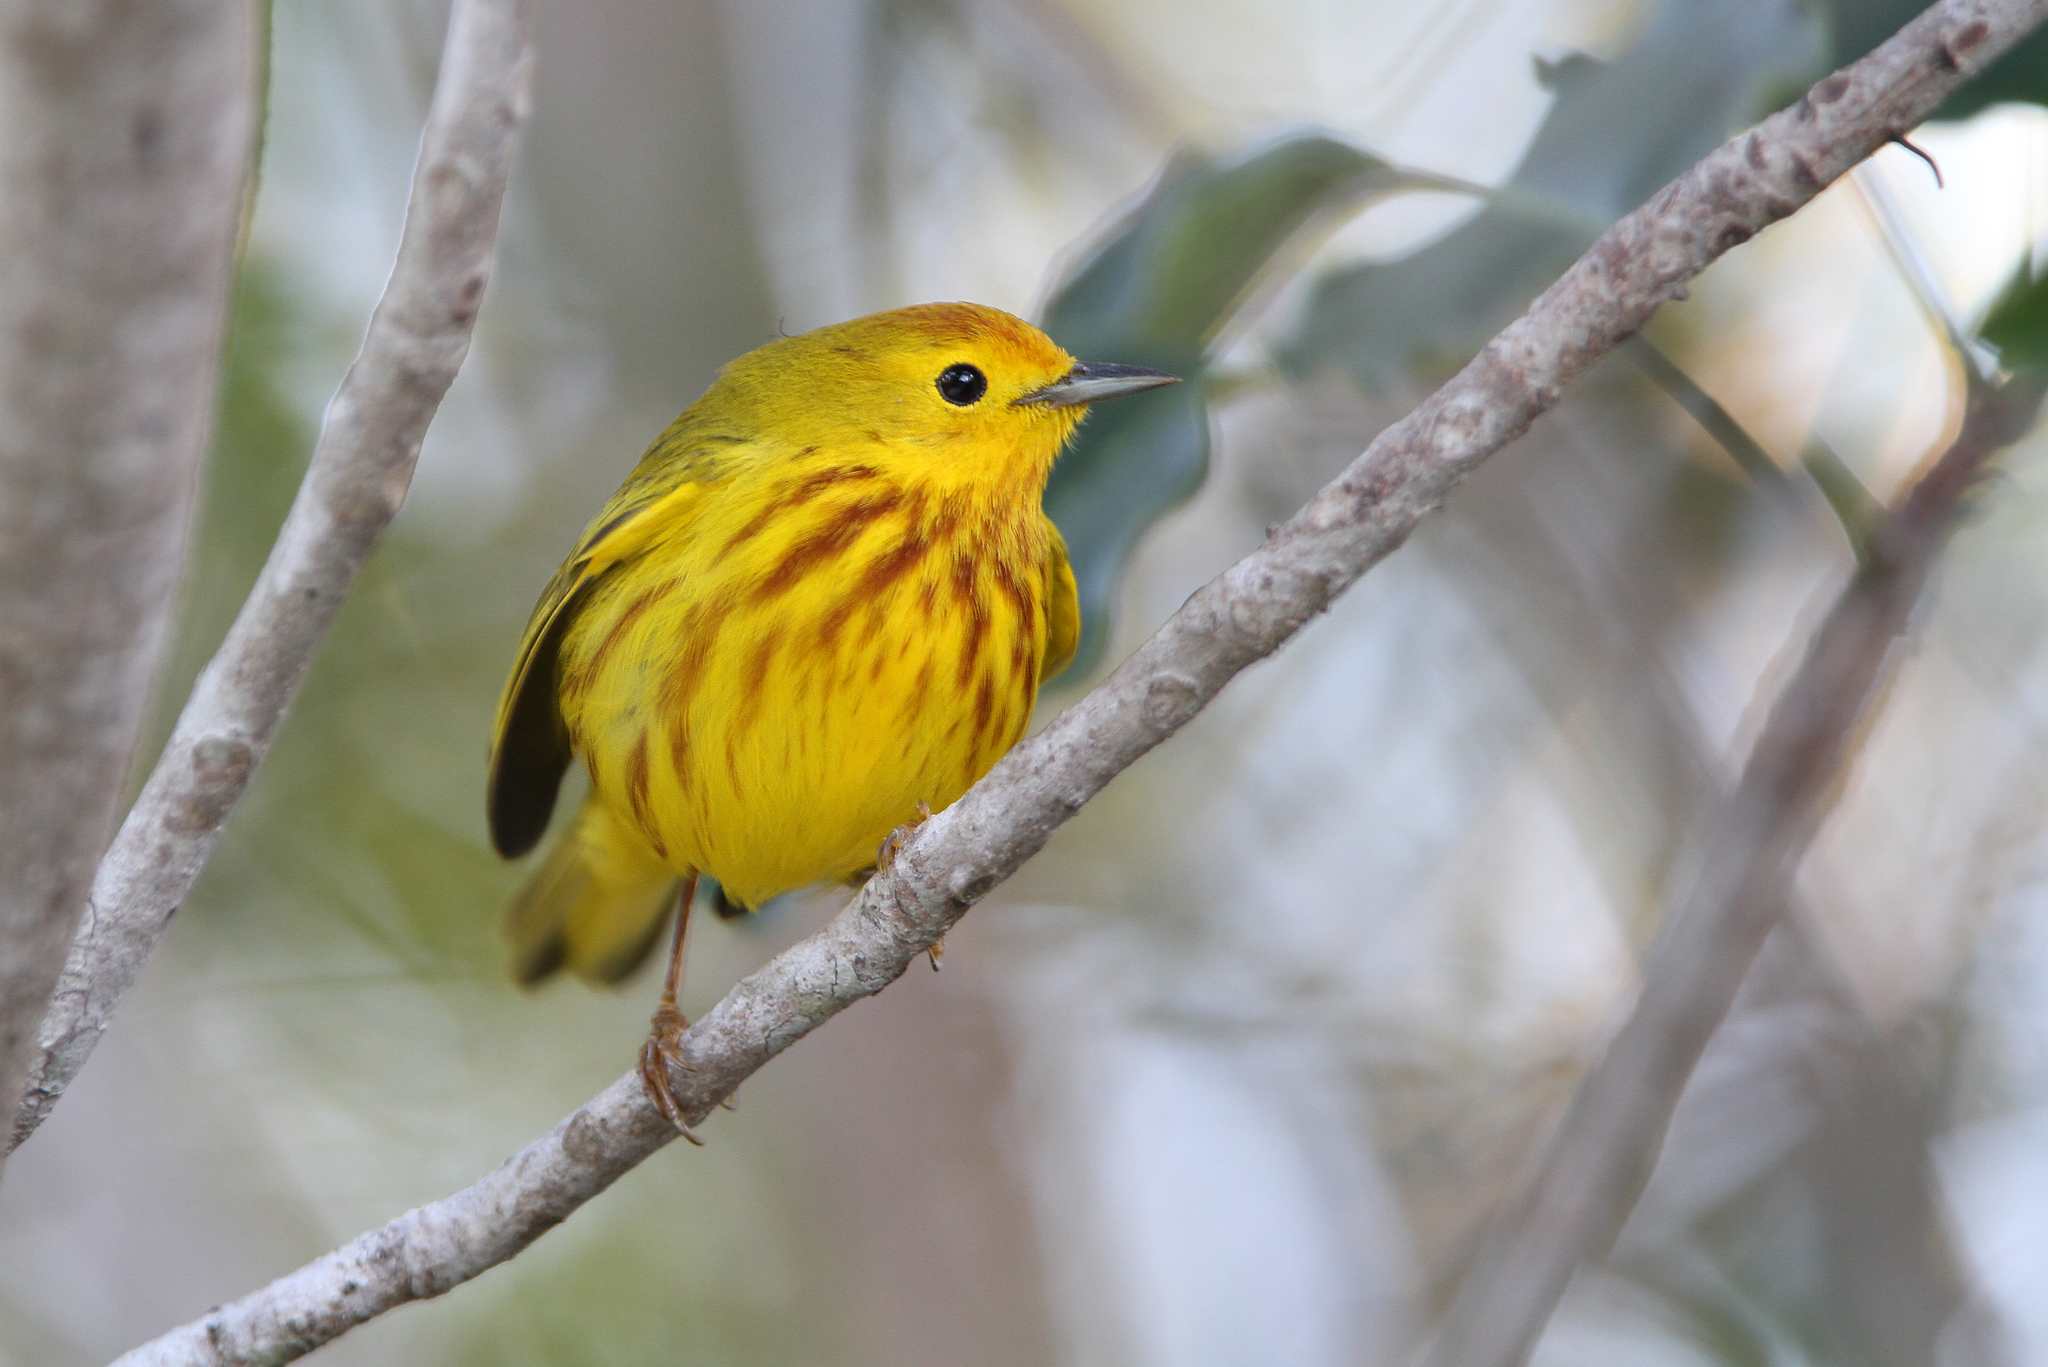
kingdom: Animalia
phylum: Chordata
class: Aves
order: Passeriformes
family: Parulidae
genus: Setophaga
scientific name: Setophaga petechia
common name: Yellow warbler
